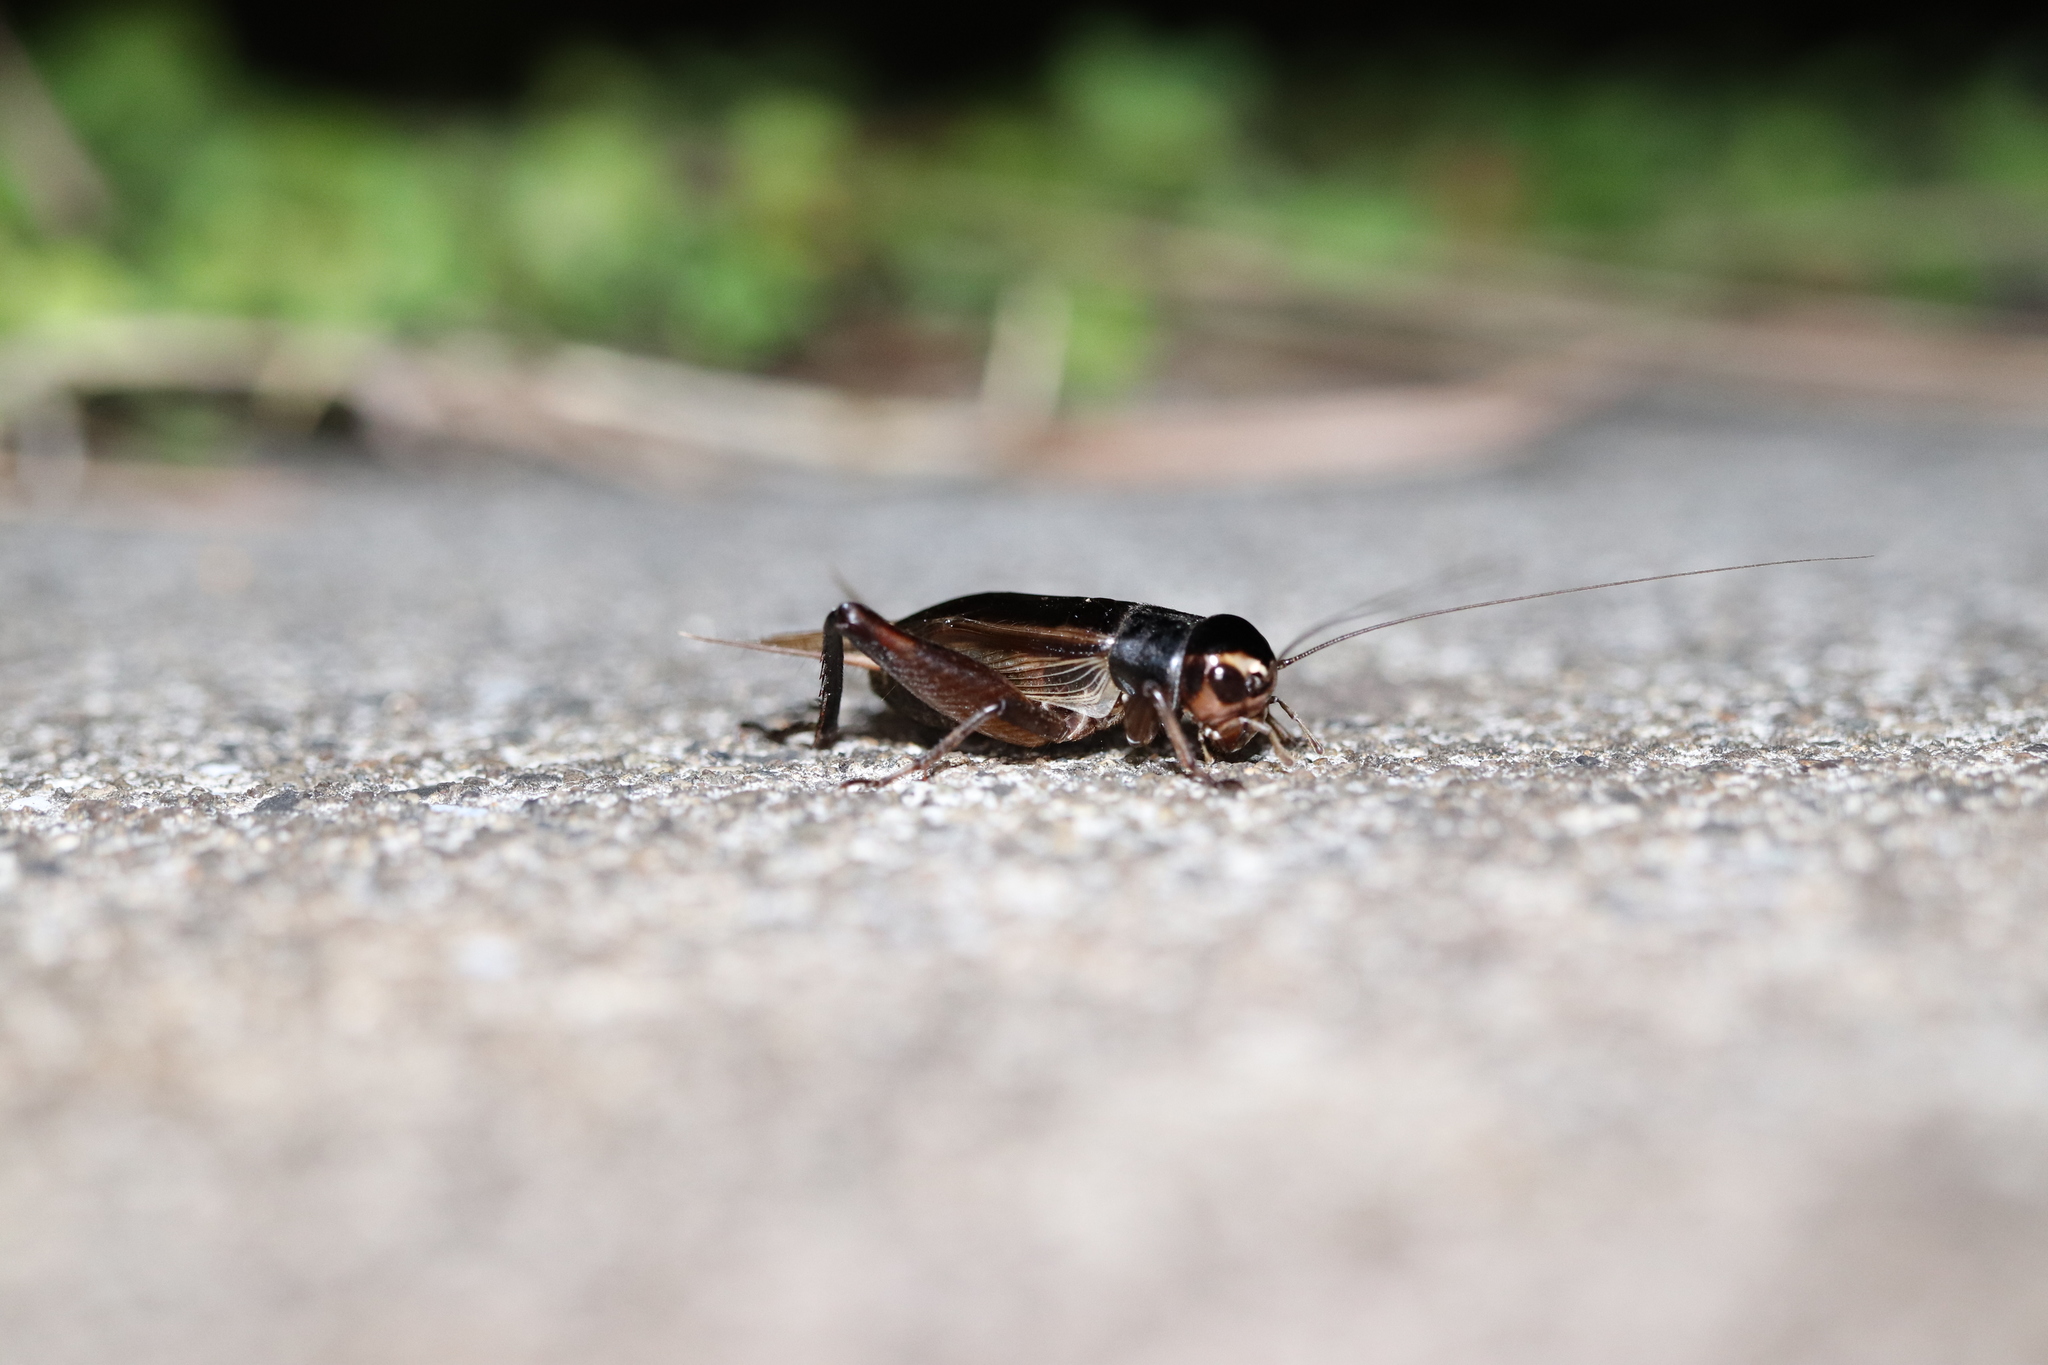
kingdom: Animalia
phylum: Arthropoda
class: Insecta
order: Orthoptera
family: Gryllidae
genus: Teleogryllus
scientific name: Teleogryllus emma
